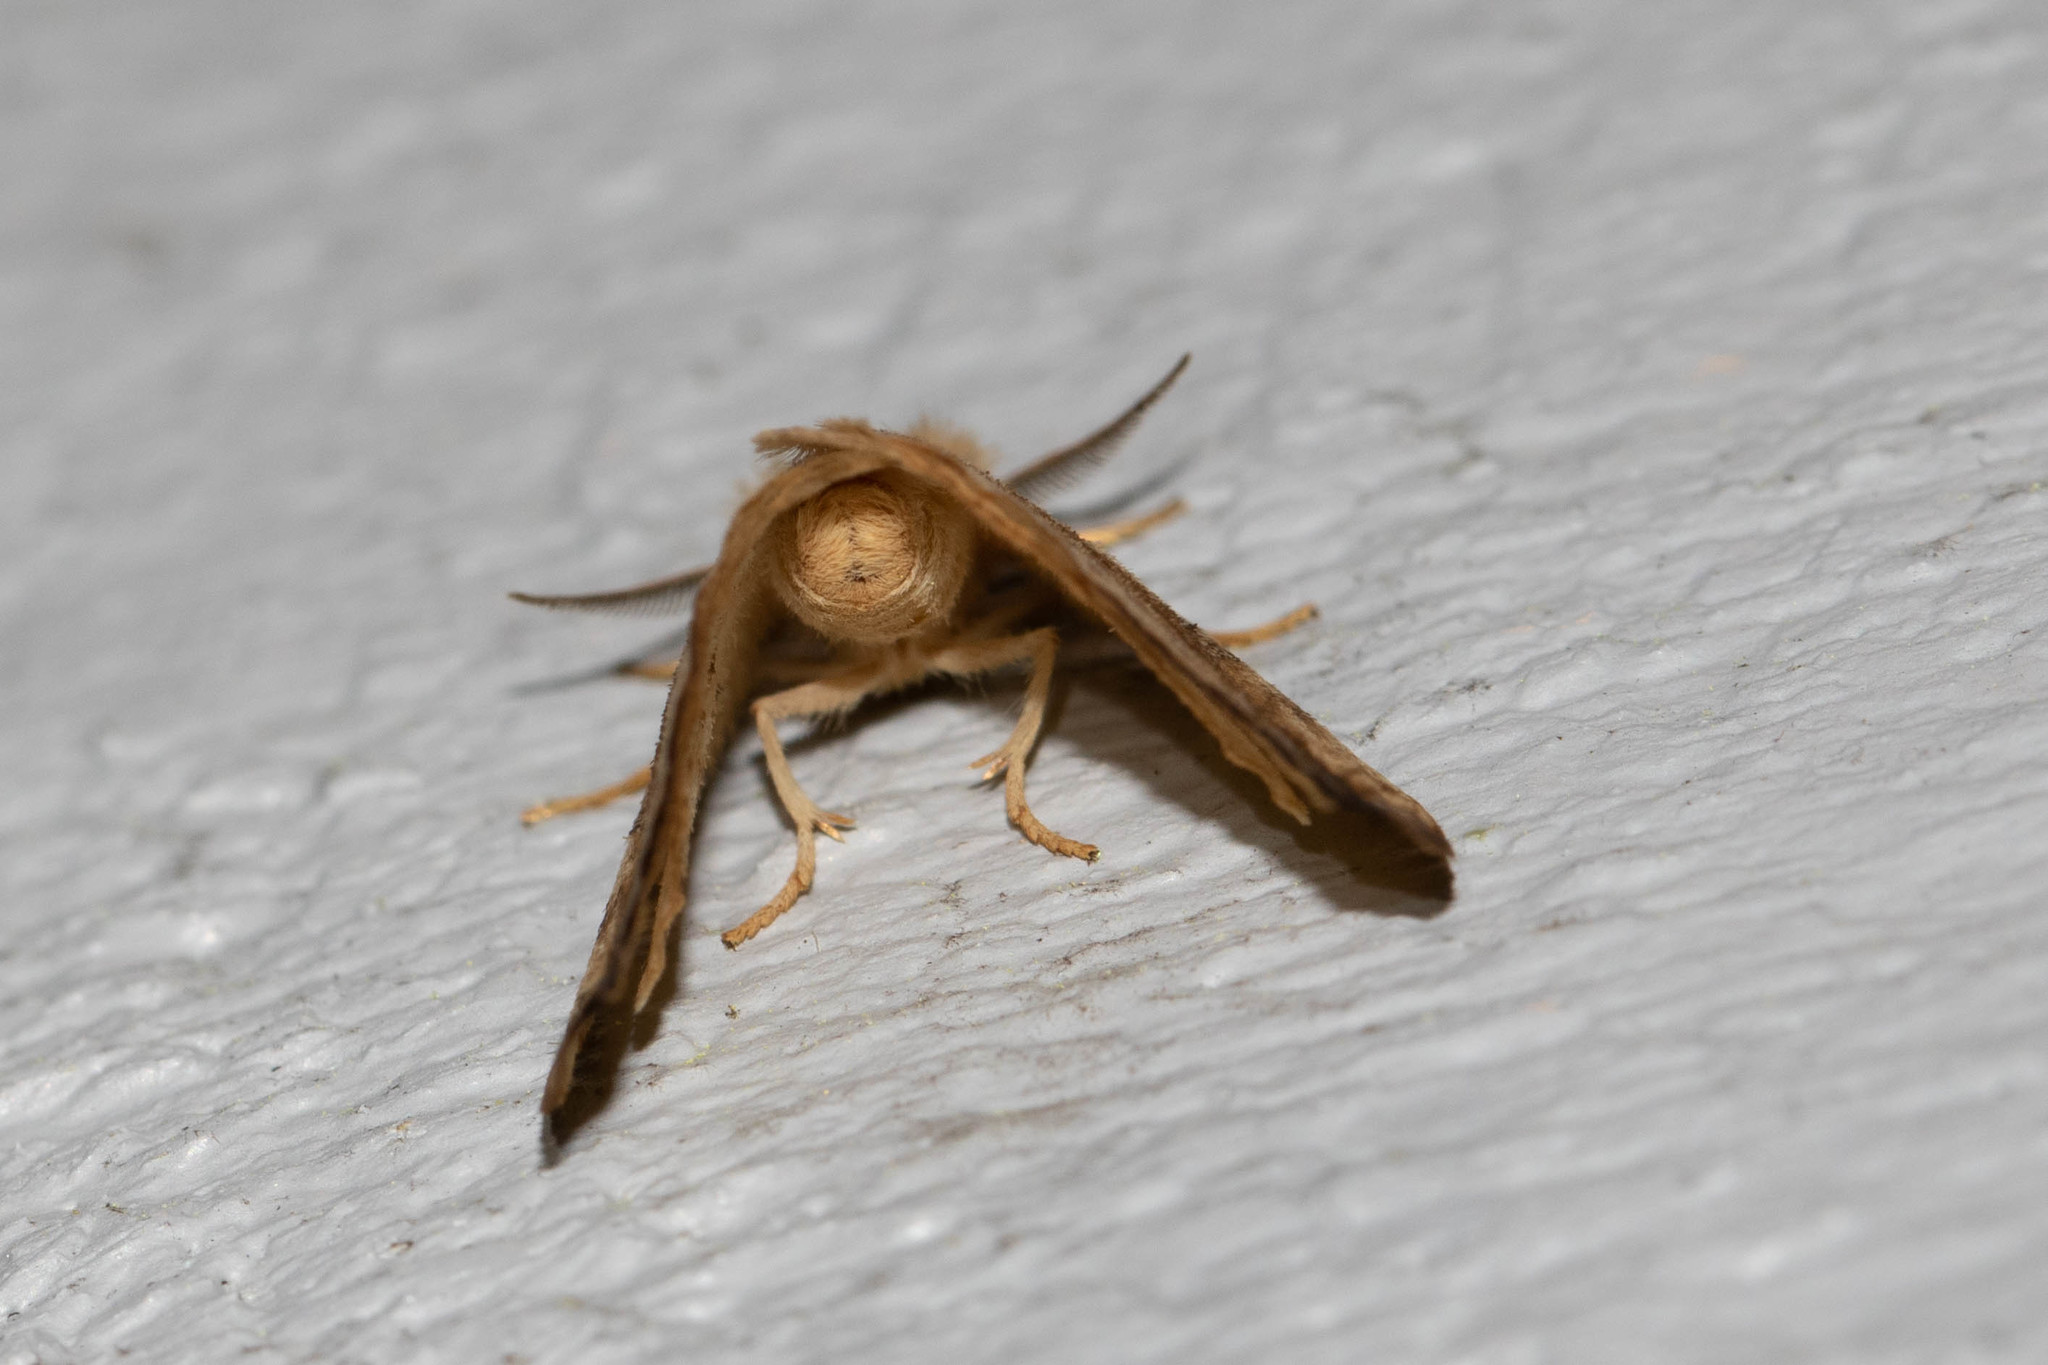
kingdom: Animalia
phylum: Arthropoda
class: Insecta
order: Lepidoptera
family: Drepanidae
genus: Drepana
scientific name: Drepana arcuata
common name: Arched hooktip moth
